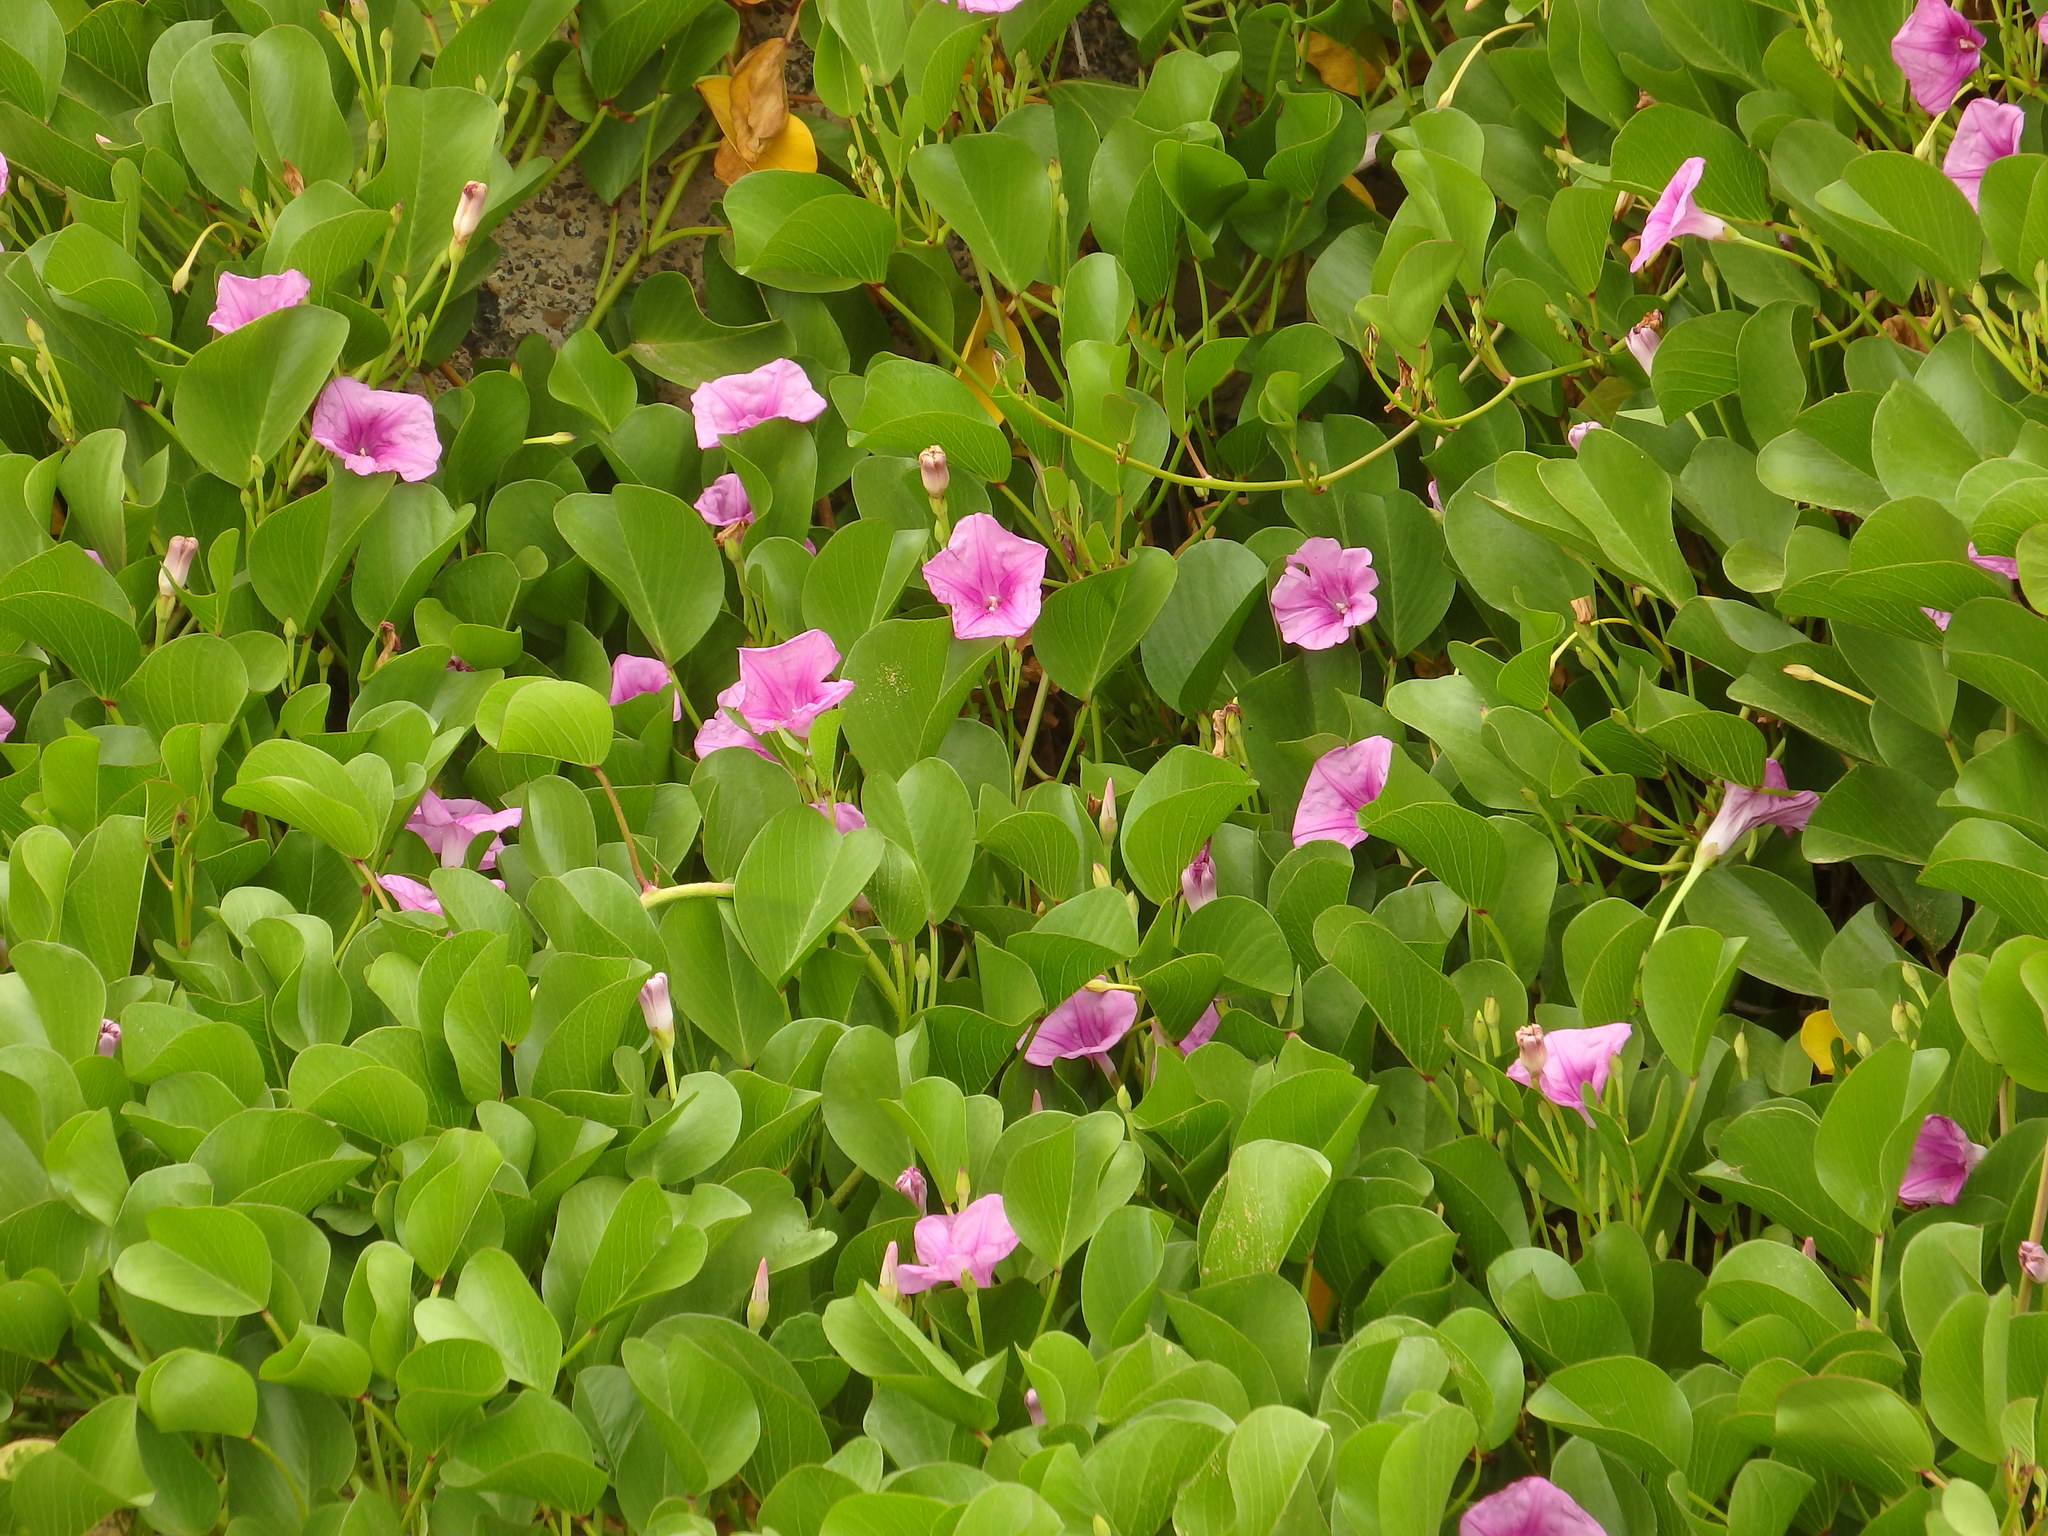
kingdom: Plantae
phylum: Tracheophyta
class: Magnoliopsida
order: Solanales
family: Convolvulaceae
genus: Ipomoea
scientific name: Ipomoea pes-caprae
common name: Beach morning glory
